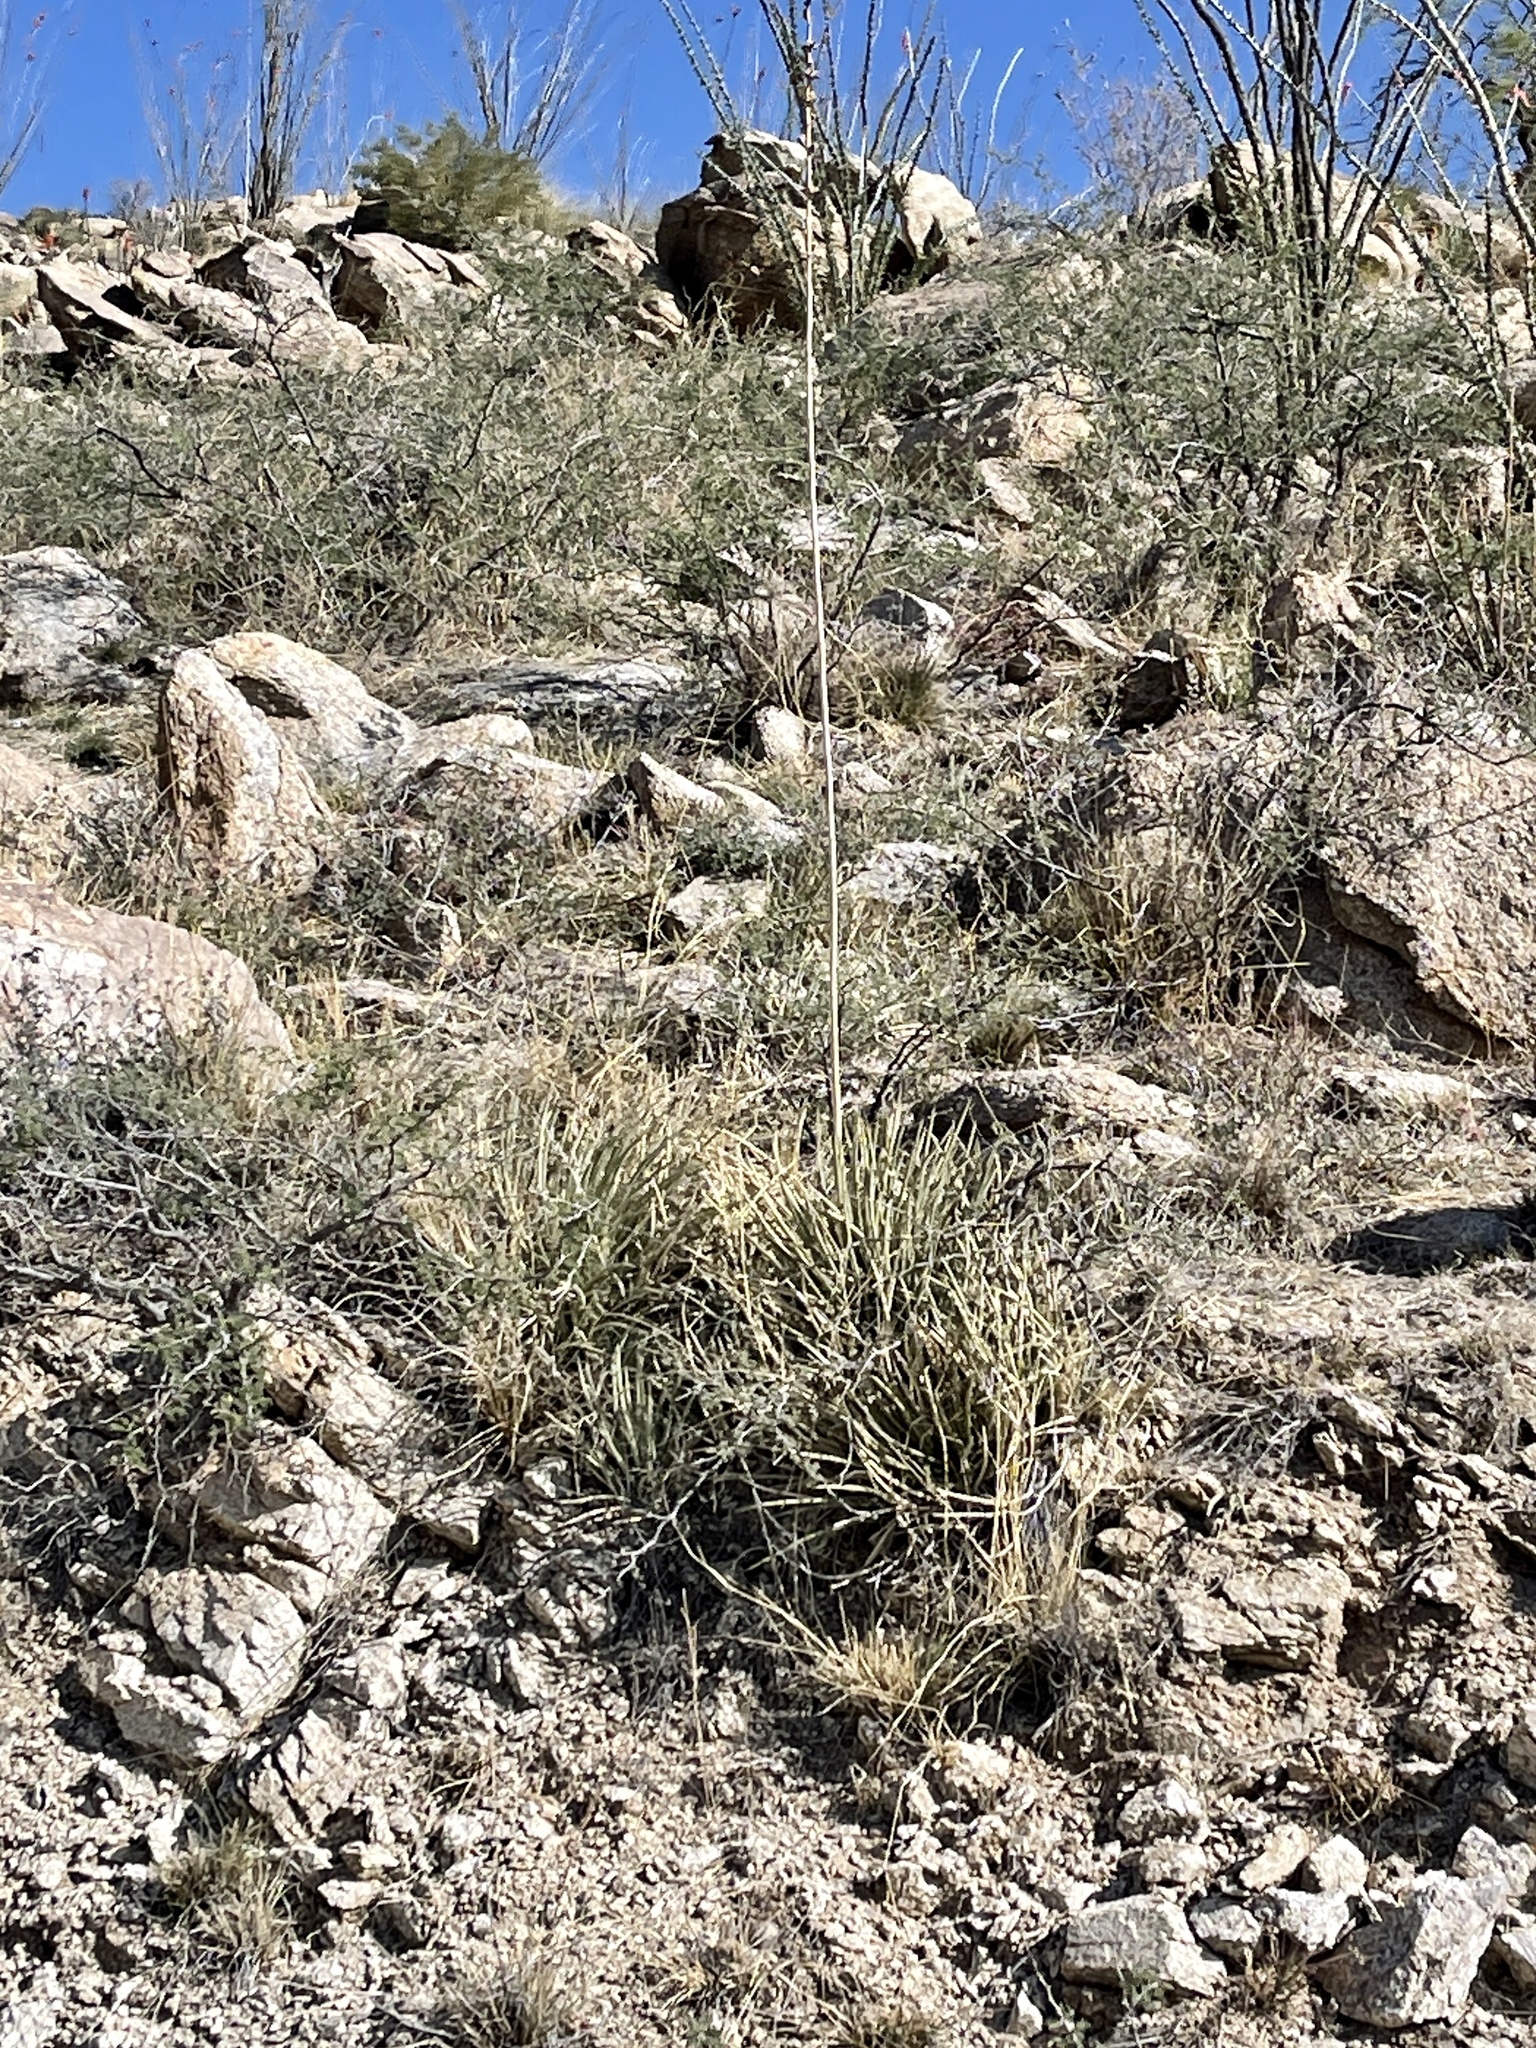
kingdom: Plantae
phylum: Tracheophyta
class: Liliopsida
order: Asparagales
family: Asparagaceae
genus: Agave
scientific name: Agave schottii
